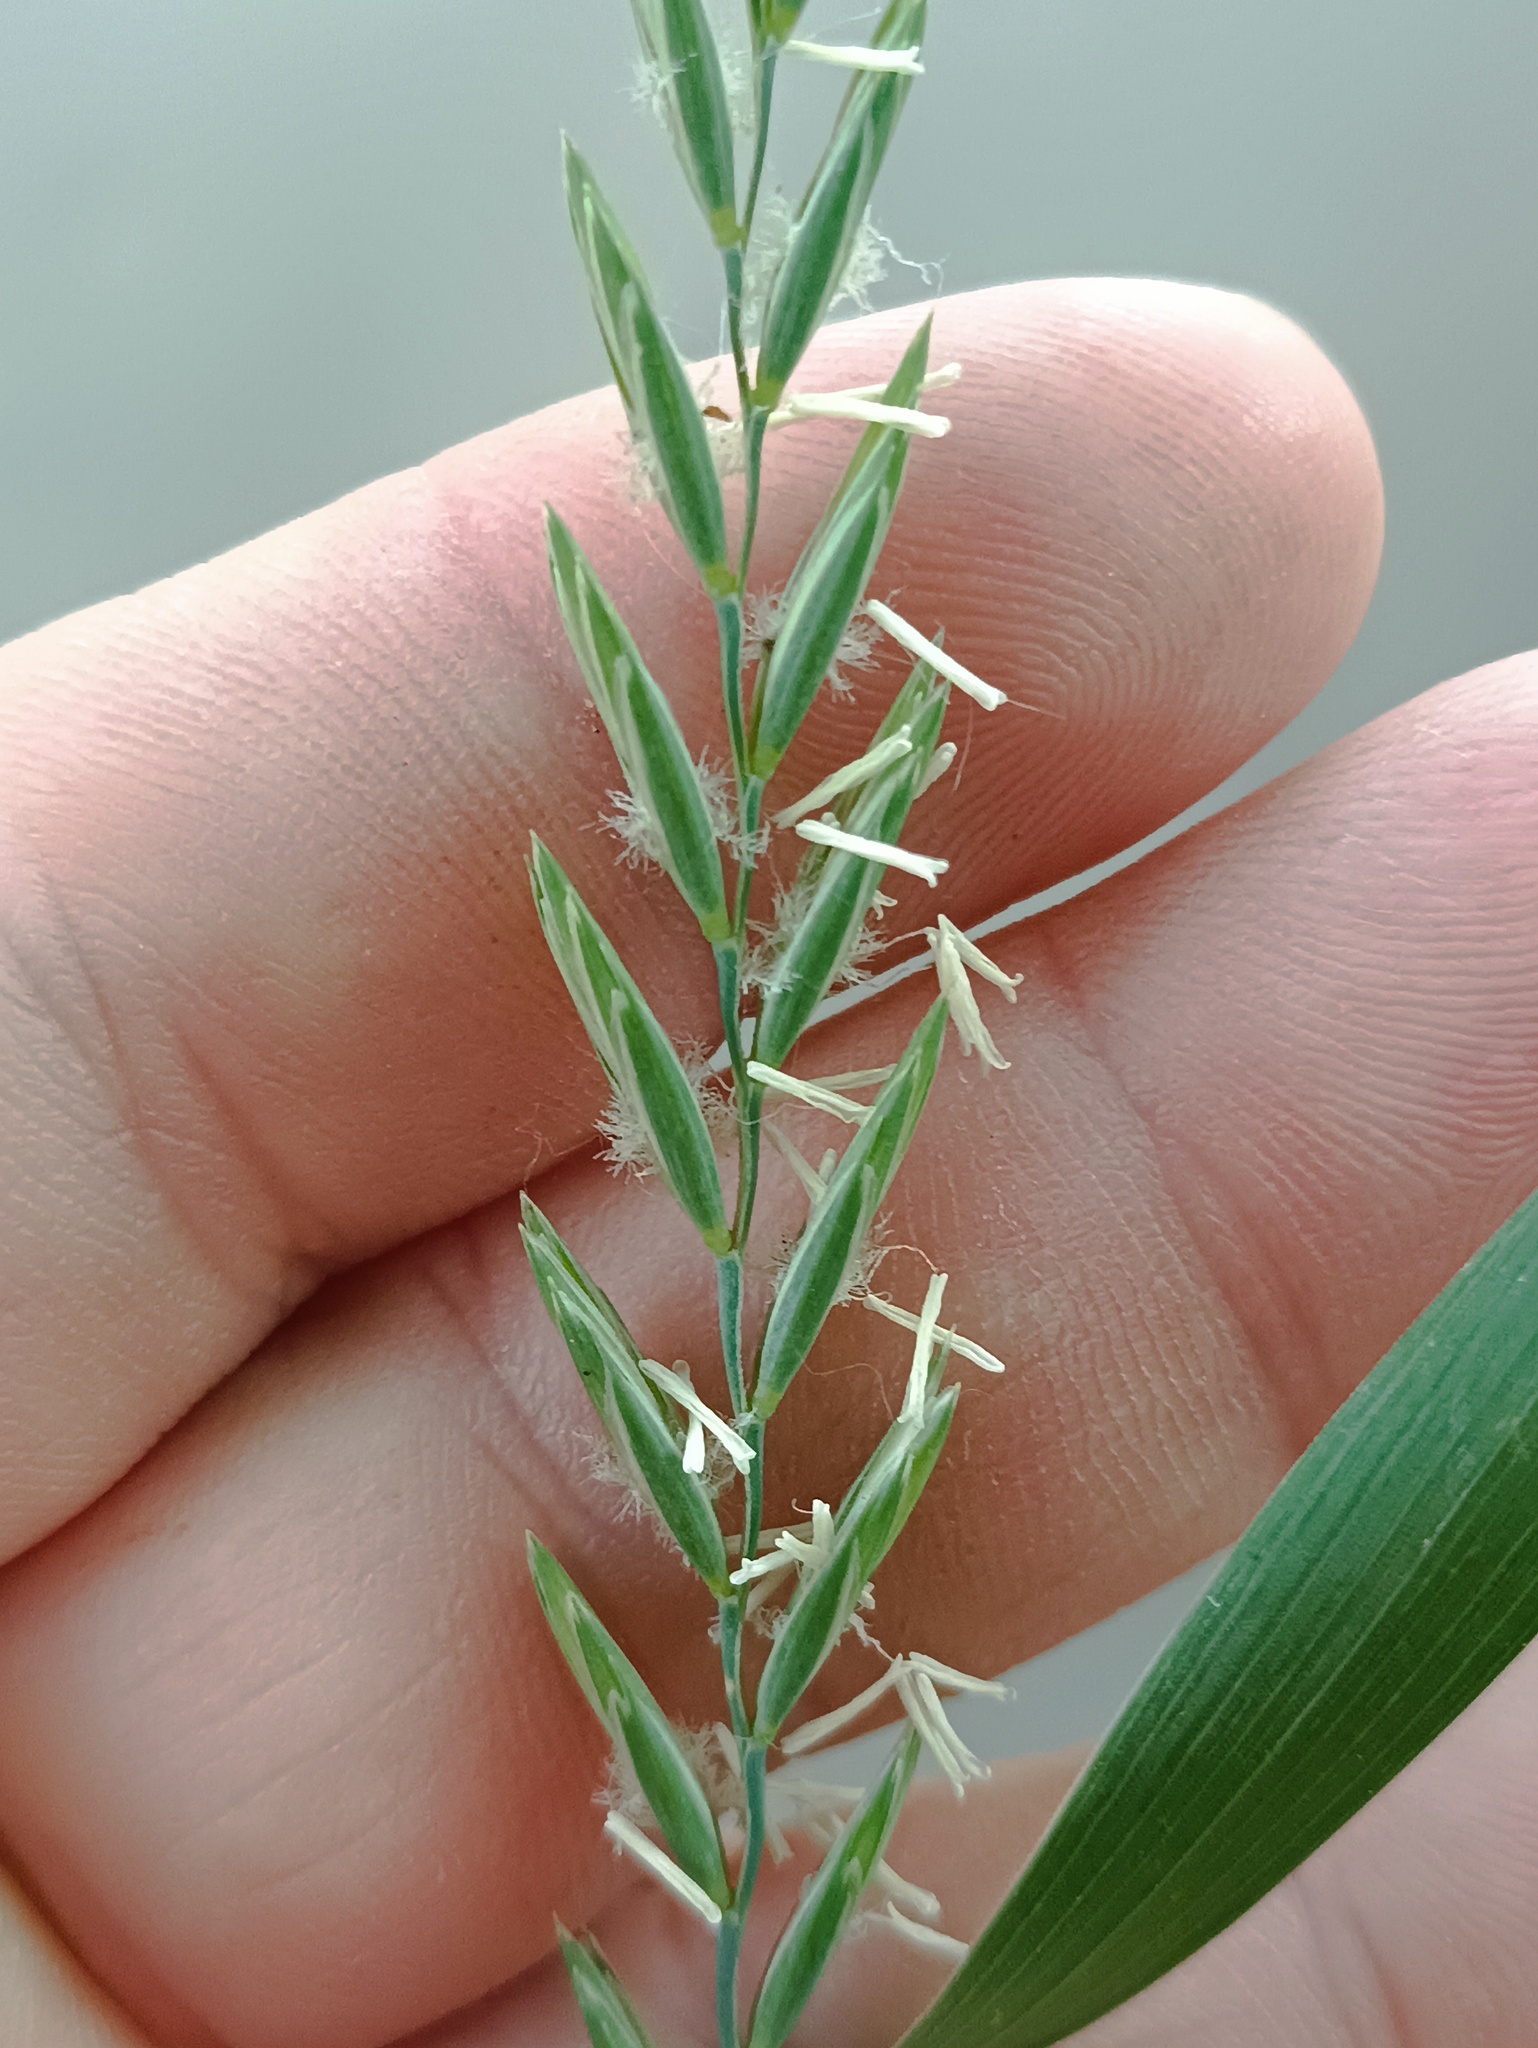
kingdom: Plantae
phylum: Tracheophyta
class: Liliopsida
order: Poales
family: Poaceae
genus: Elymus
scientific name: Elymus repens
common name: Quackgrass
